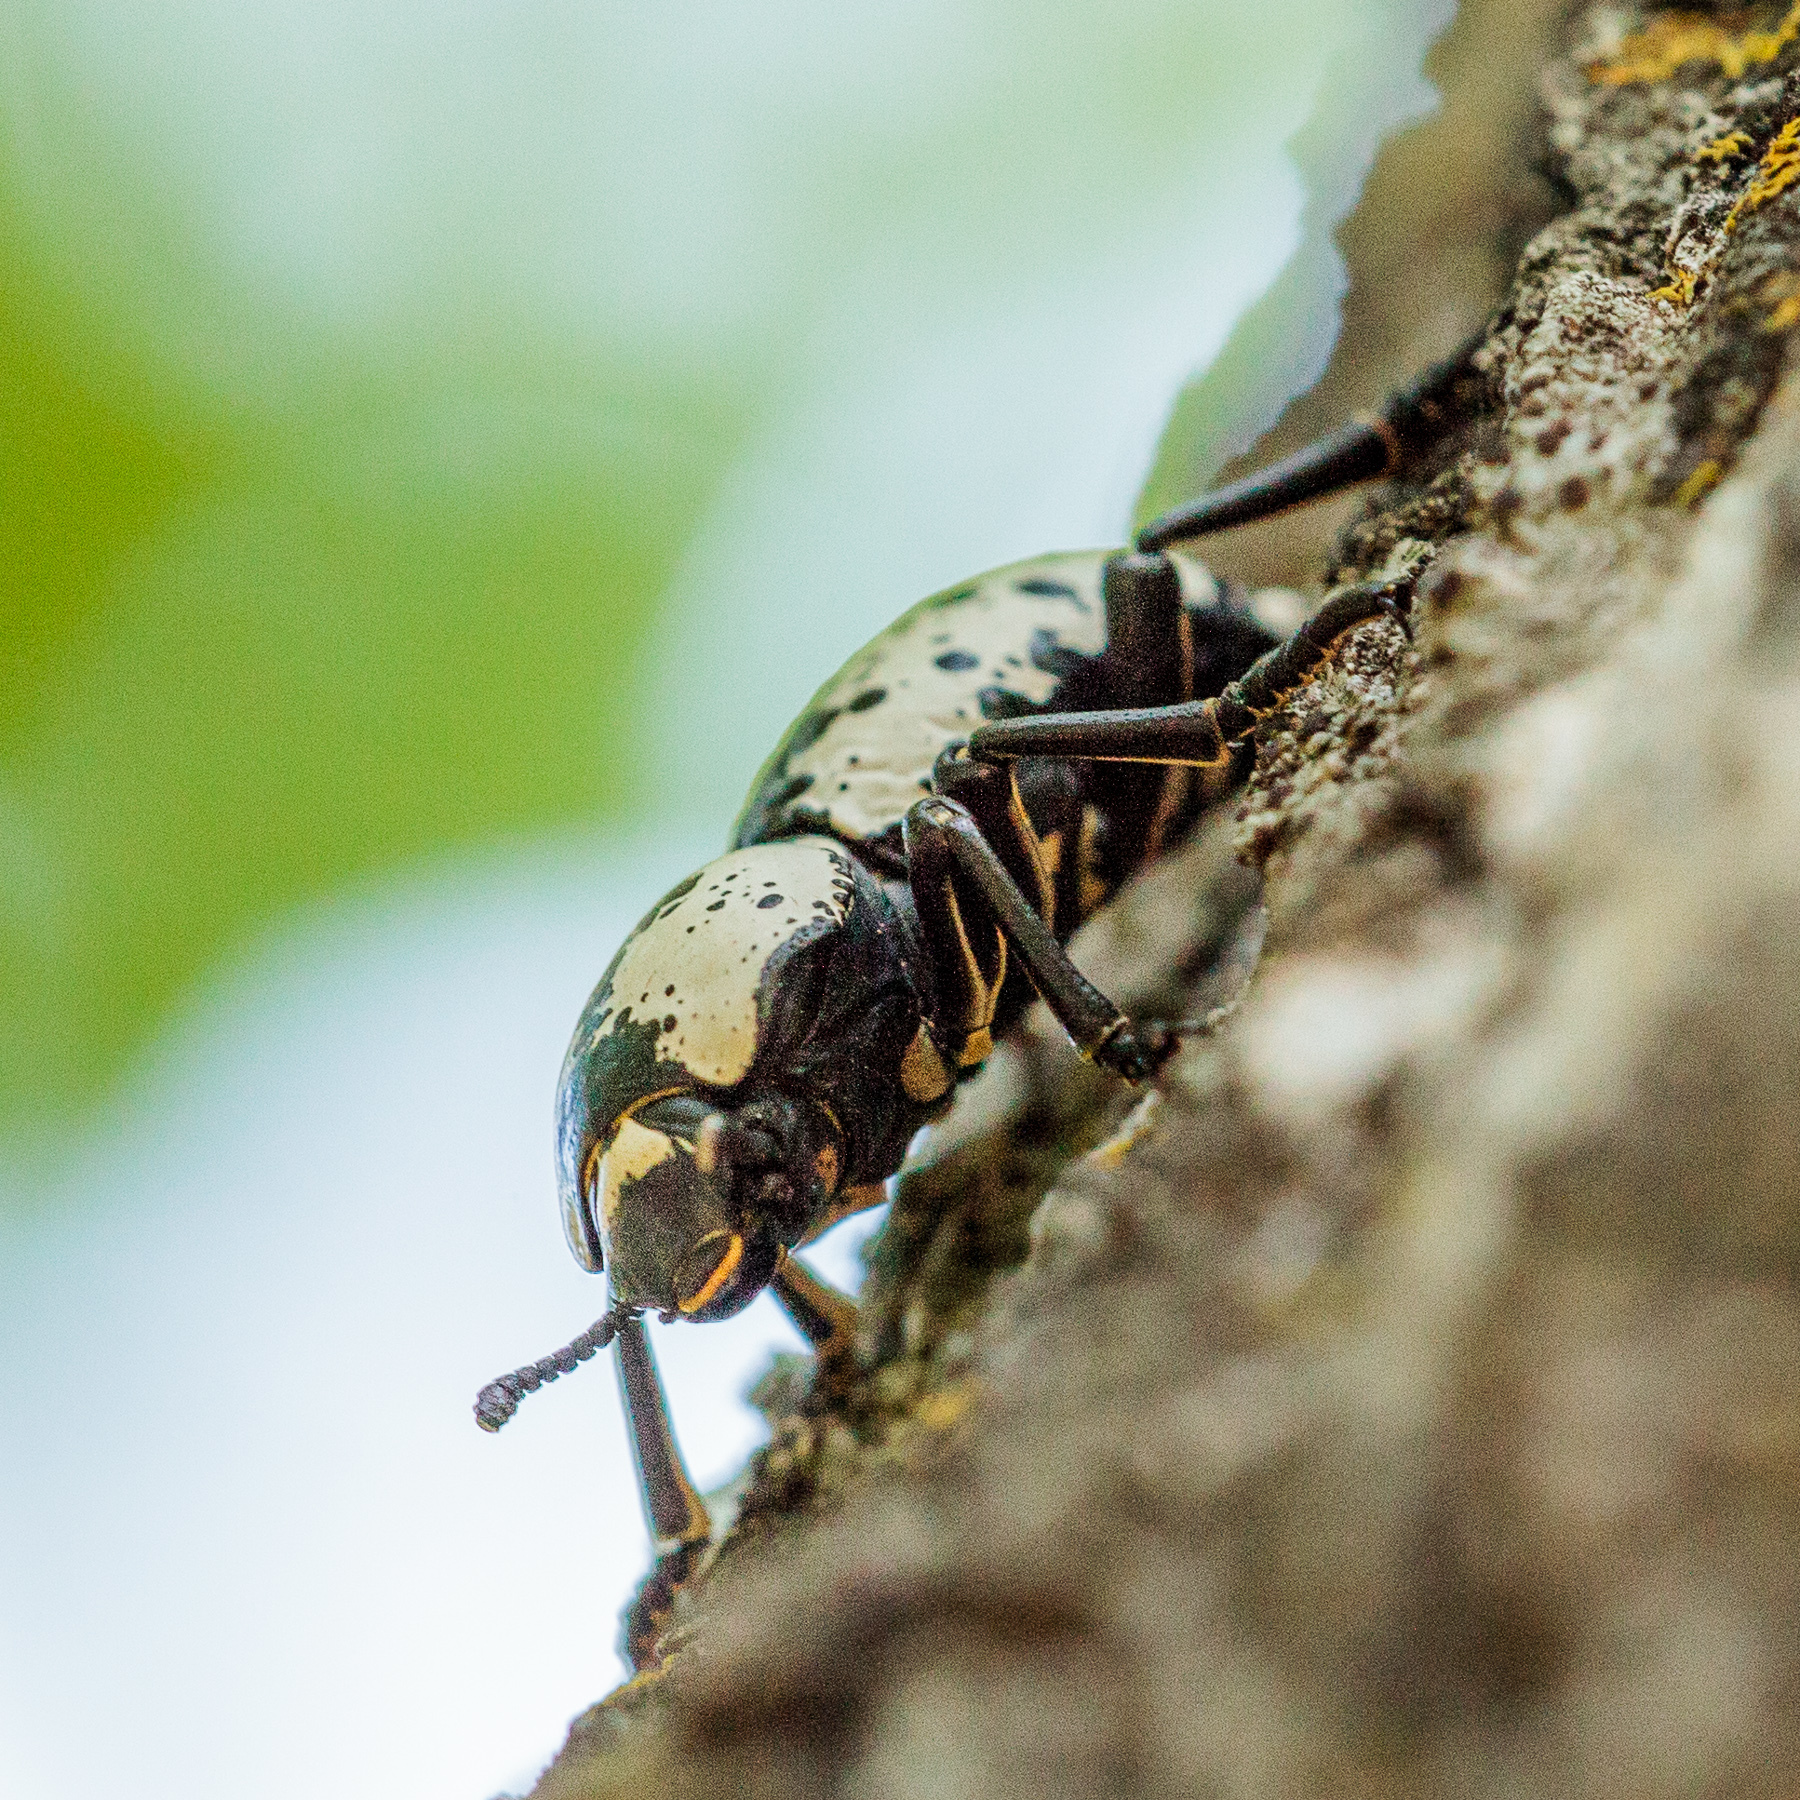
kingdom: Animalia
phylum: Arthropoda
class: Insecta
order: Coleoptera
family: Zopheridae
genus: Zopherus
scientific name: Zopherus nodulosus
